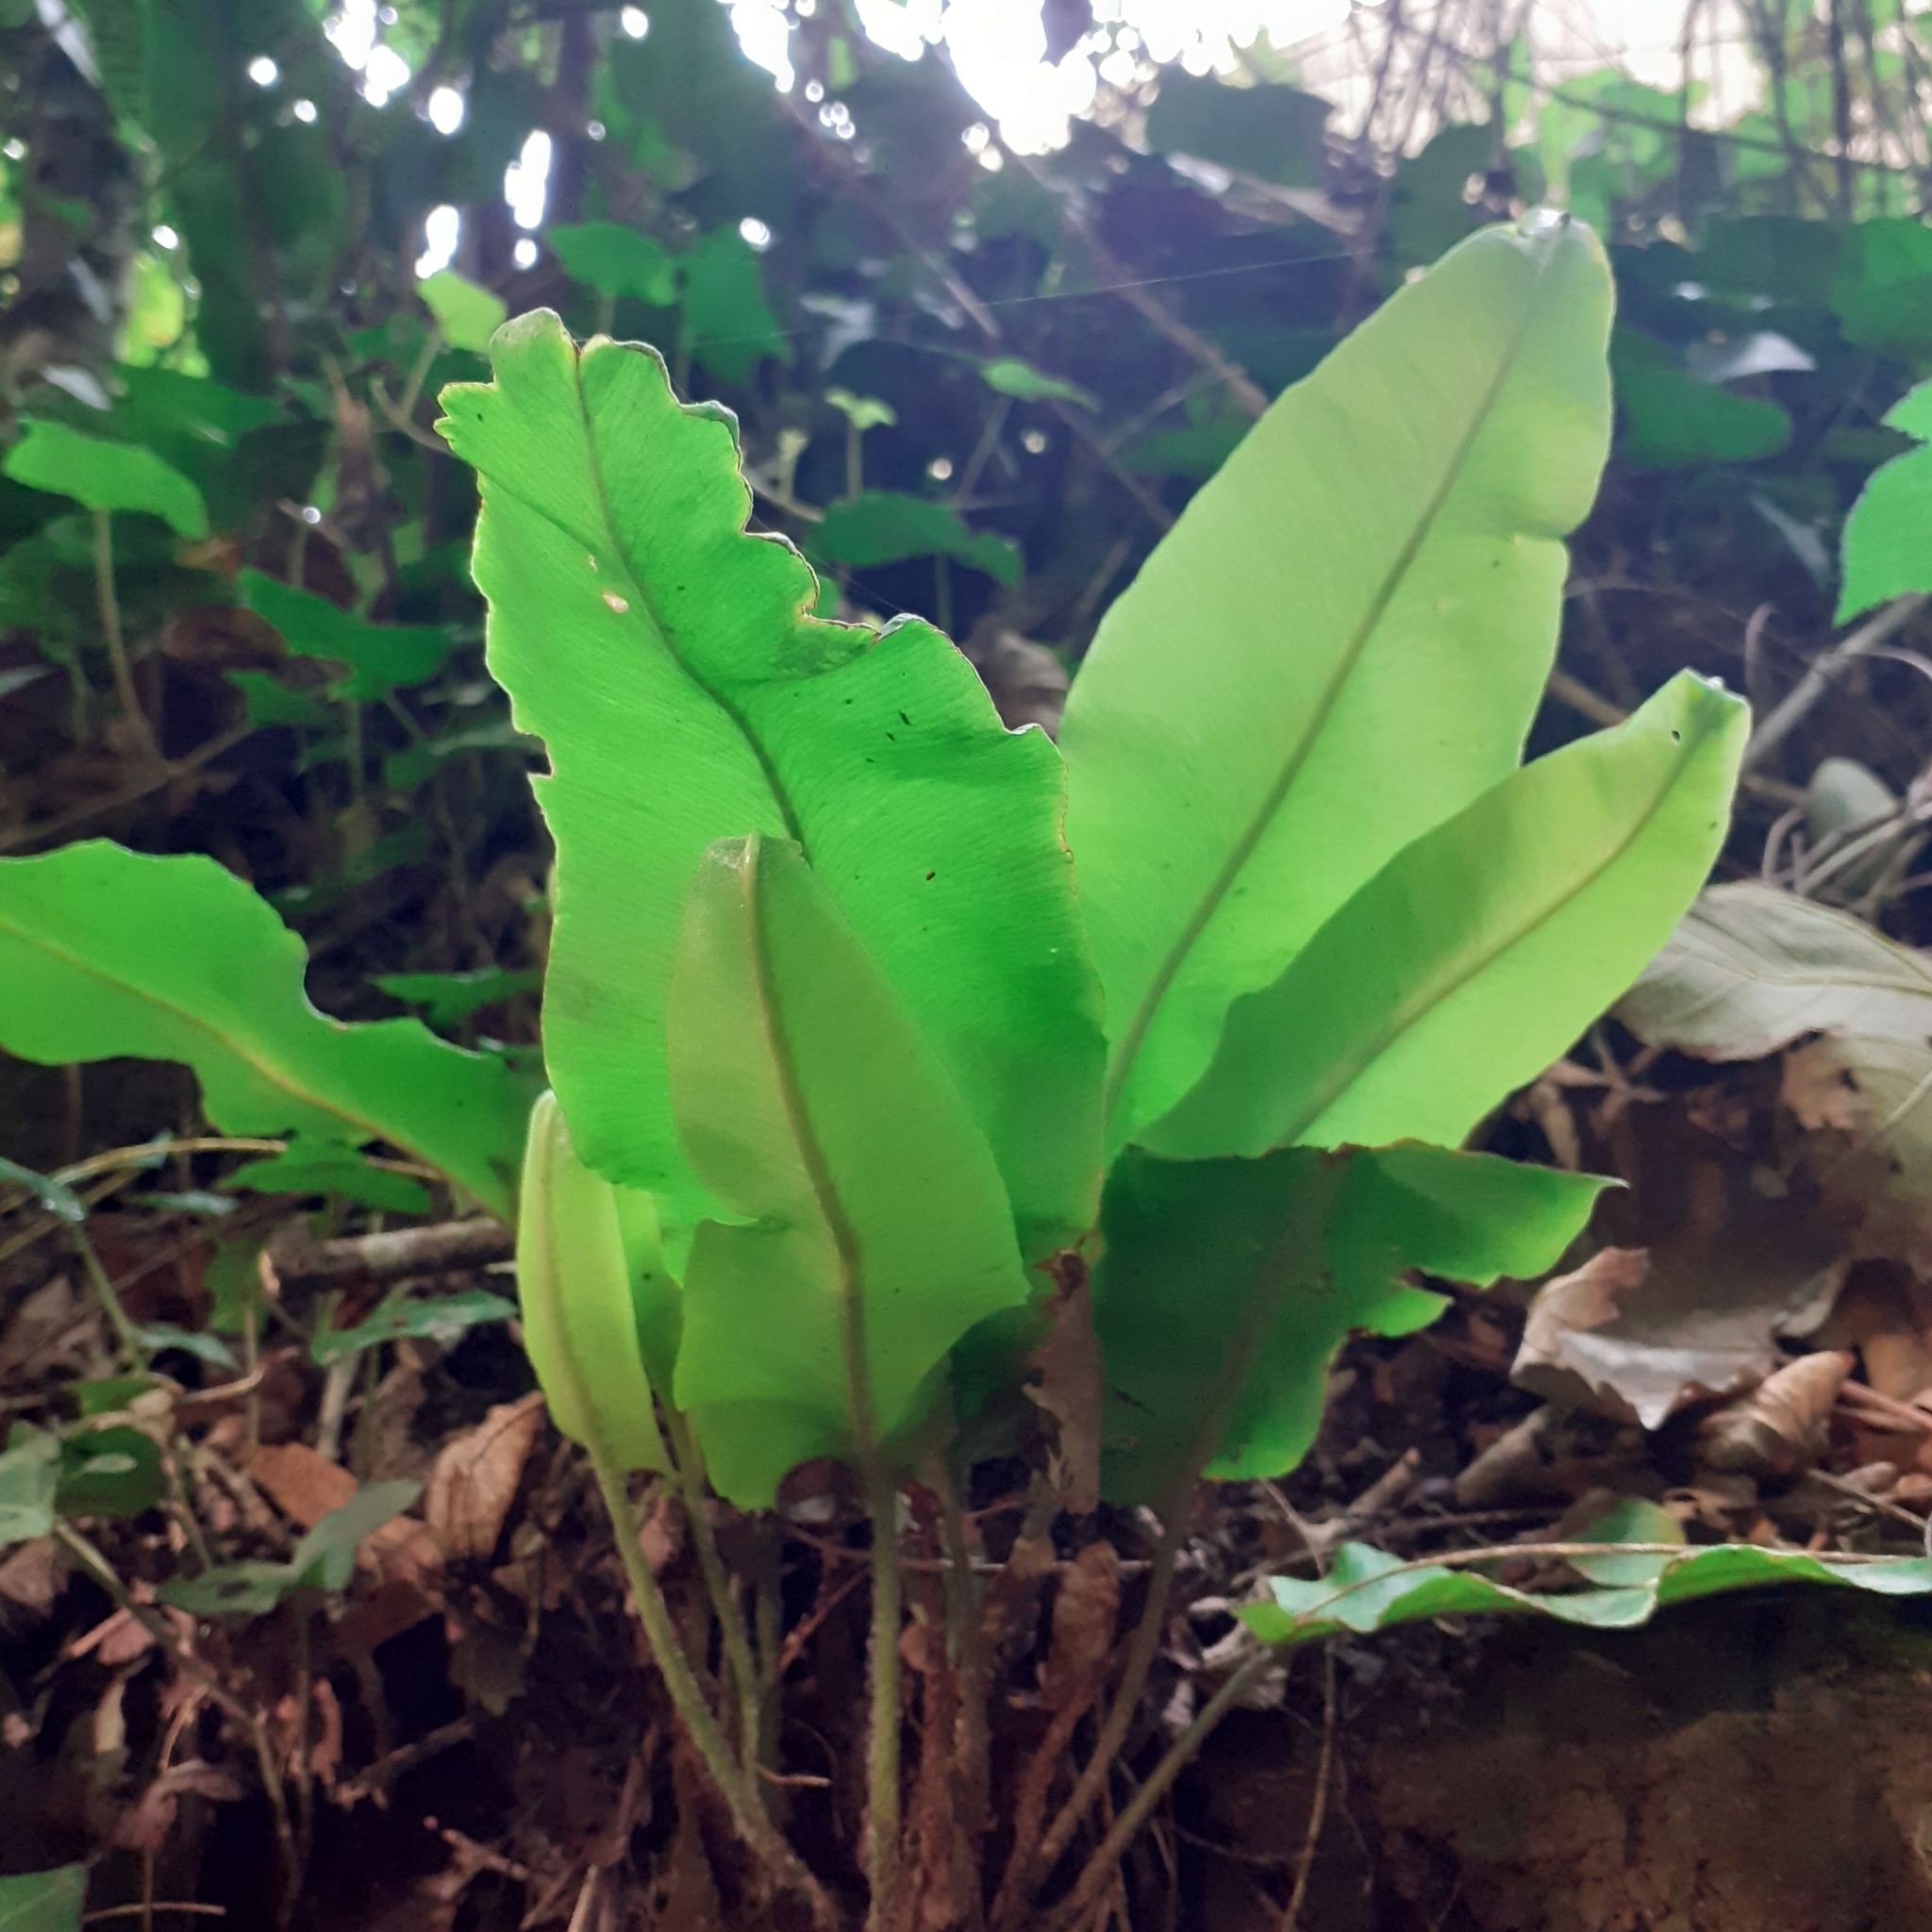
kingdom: Plantae
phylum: Tracheophyta
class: Polypodiopsida
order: Polypodiales
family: Aspleniaceae
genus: Asplenium
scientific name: Asplenium scolopendrium
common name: Hart's-tongue fern
